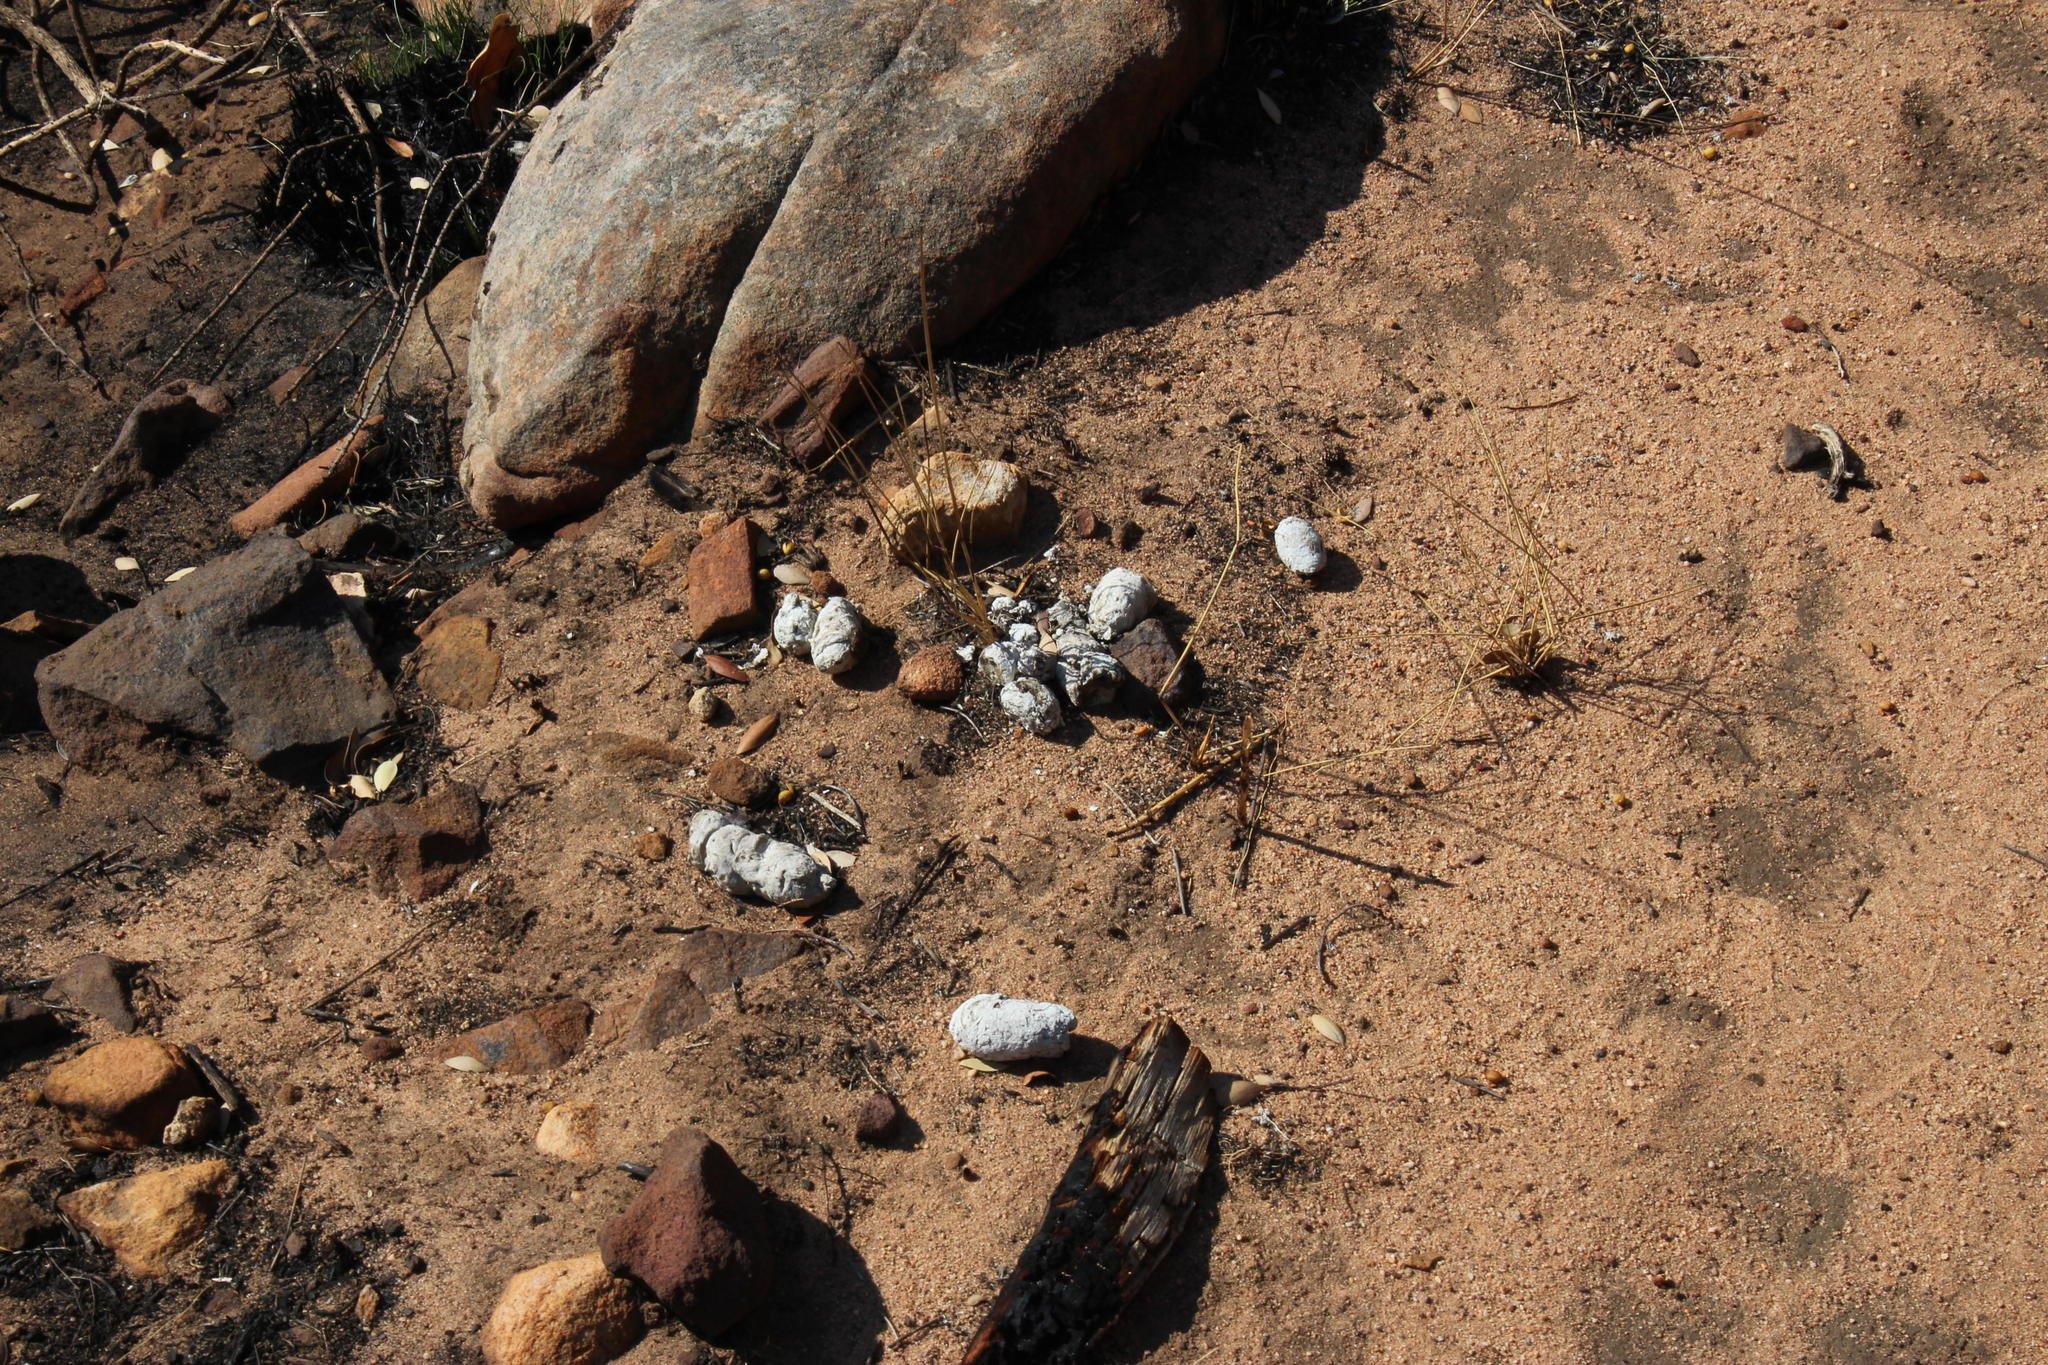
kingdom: Animalia
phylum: Chordata
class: Mammalia
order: Carnivora
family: Felidae
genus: Panthera
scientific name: Panthera pardus
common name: Leopard
